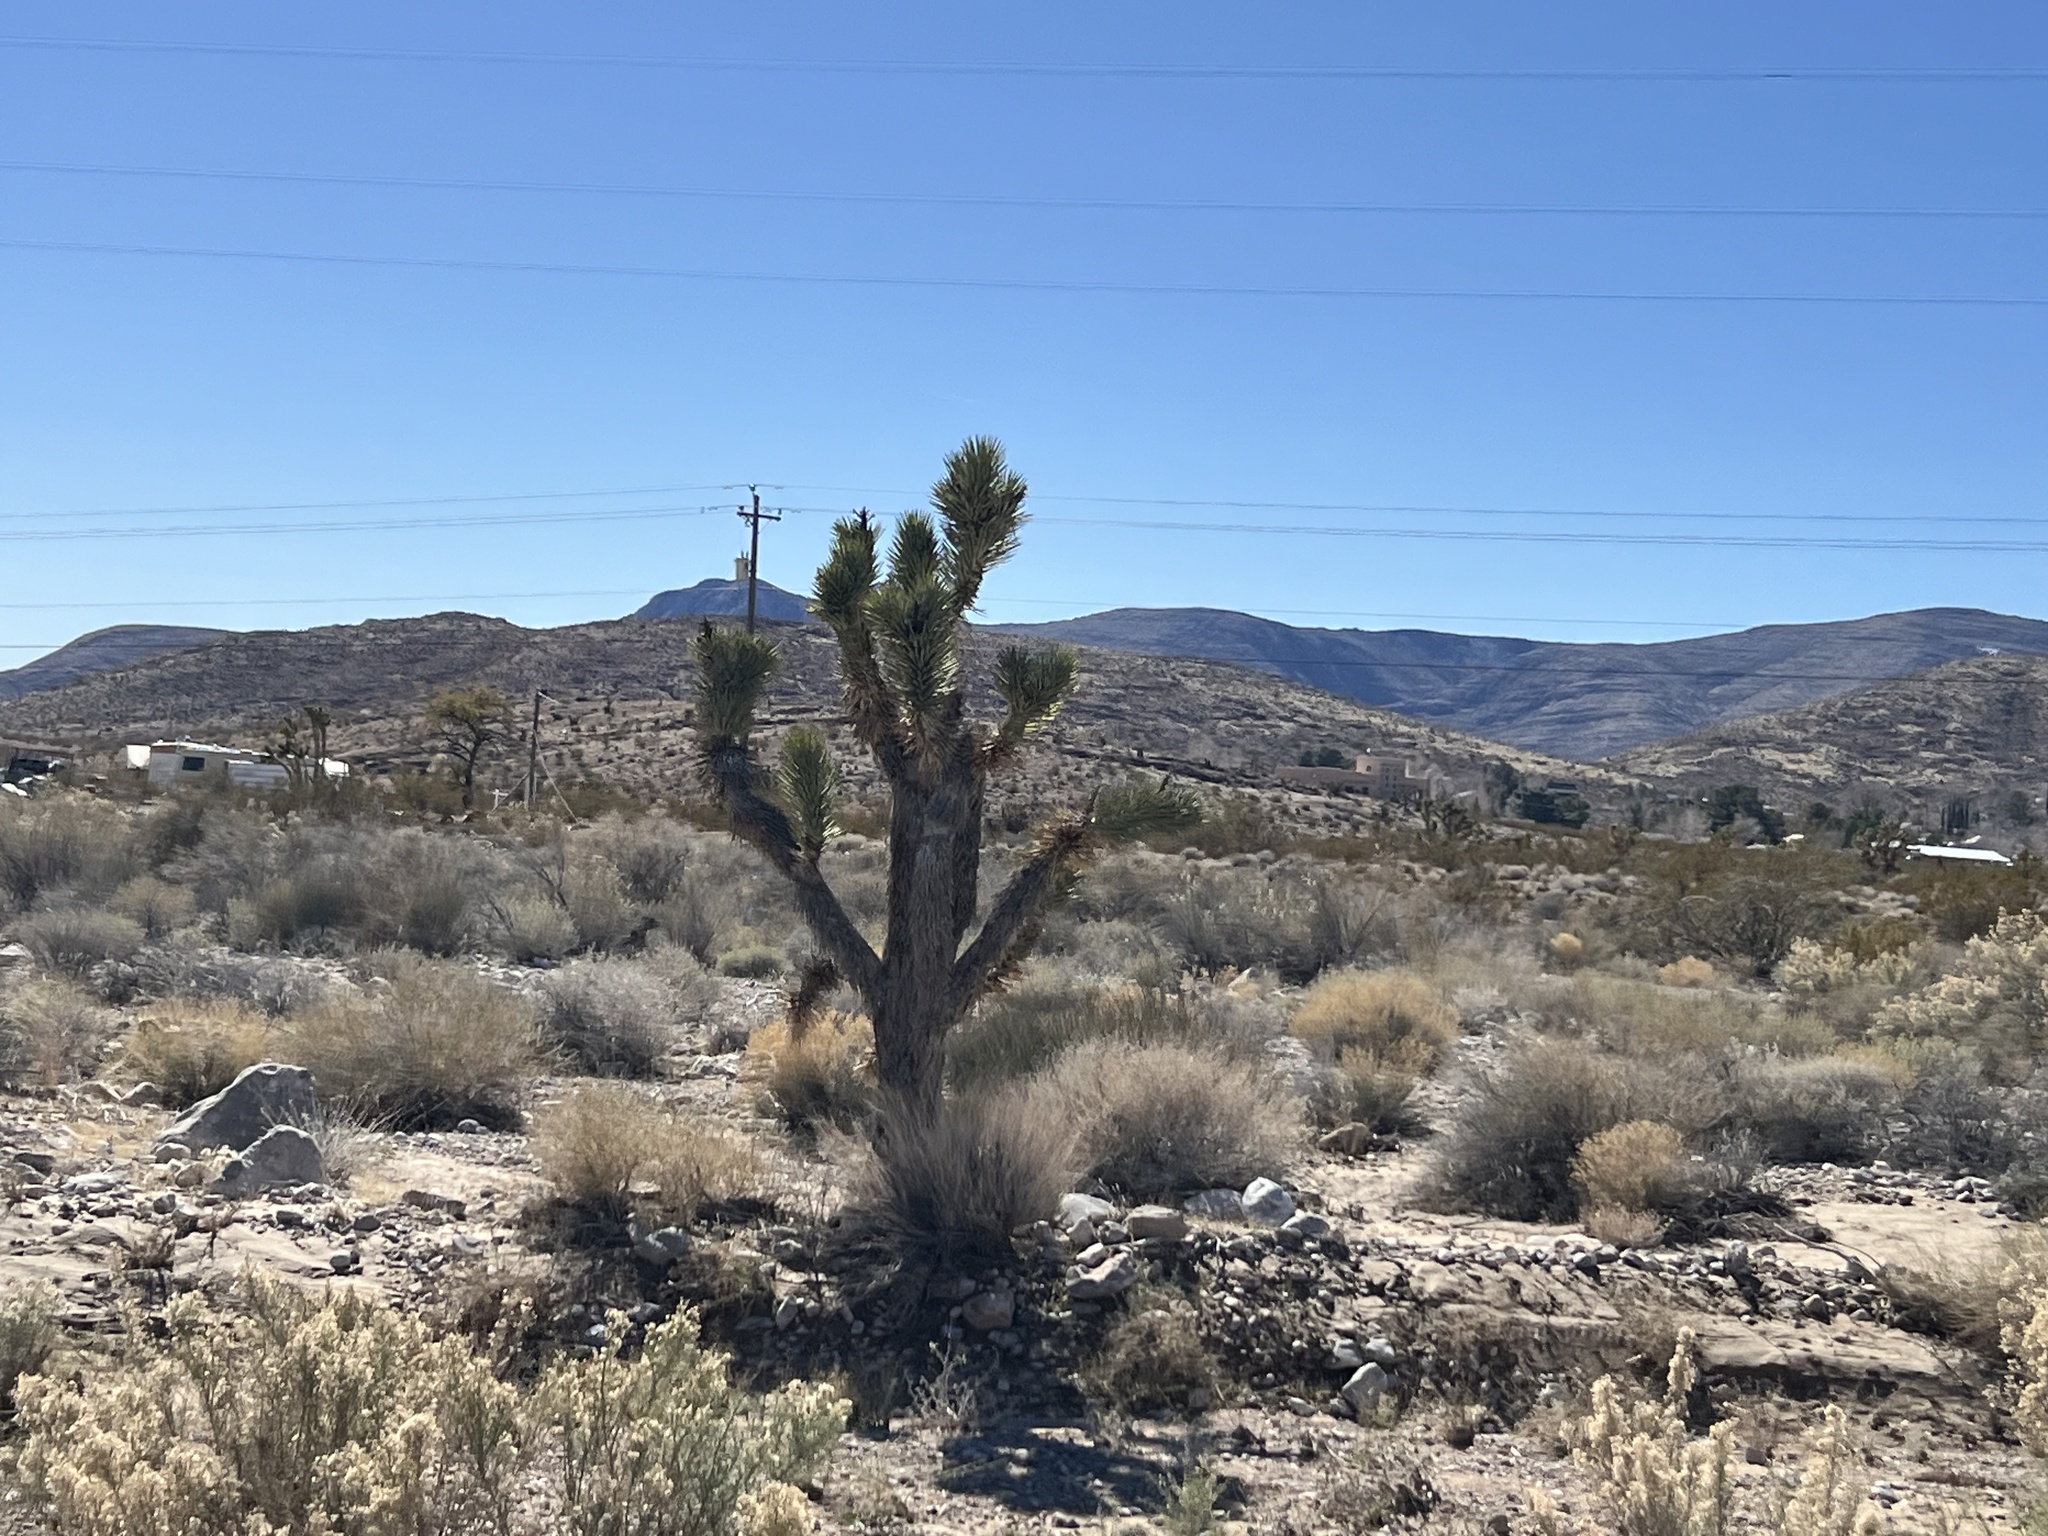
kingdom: Plantae
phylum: Tracheophyta
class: Liliopsida
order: Asparagales
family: Asparagaceae
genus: Yucca
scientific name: Yucca brevifolia
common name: Joshua tree
